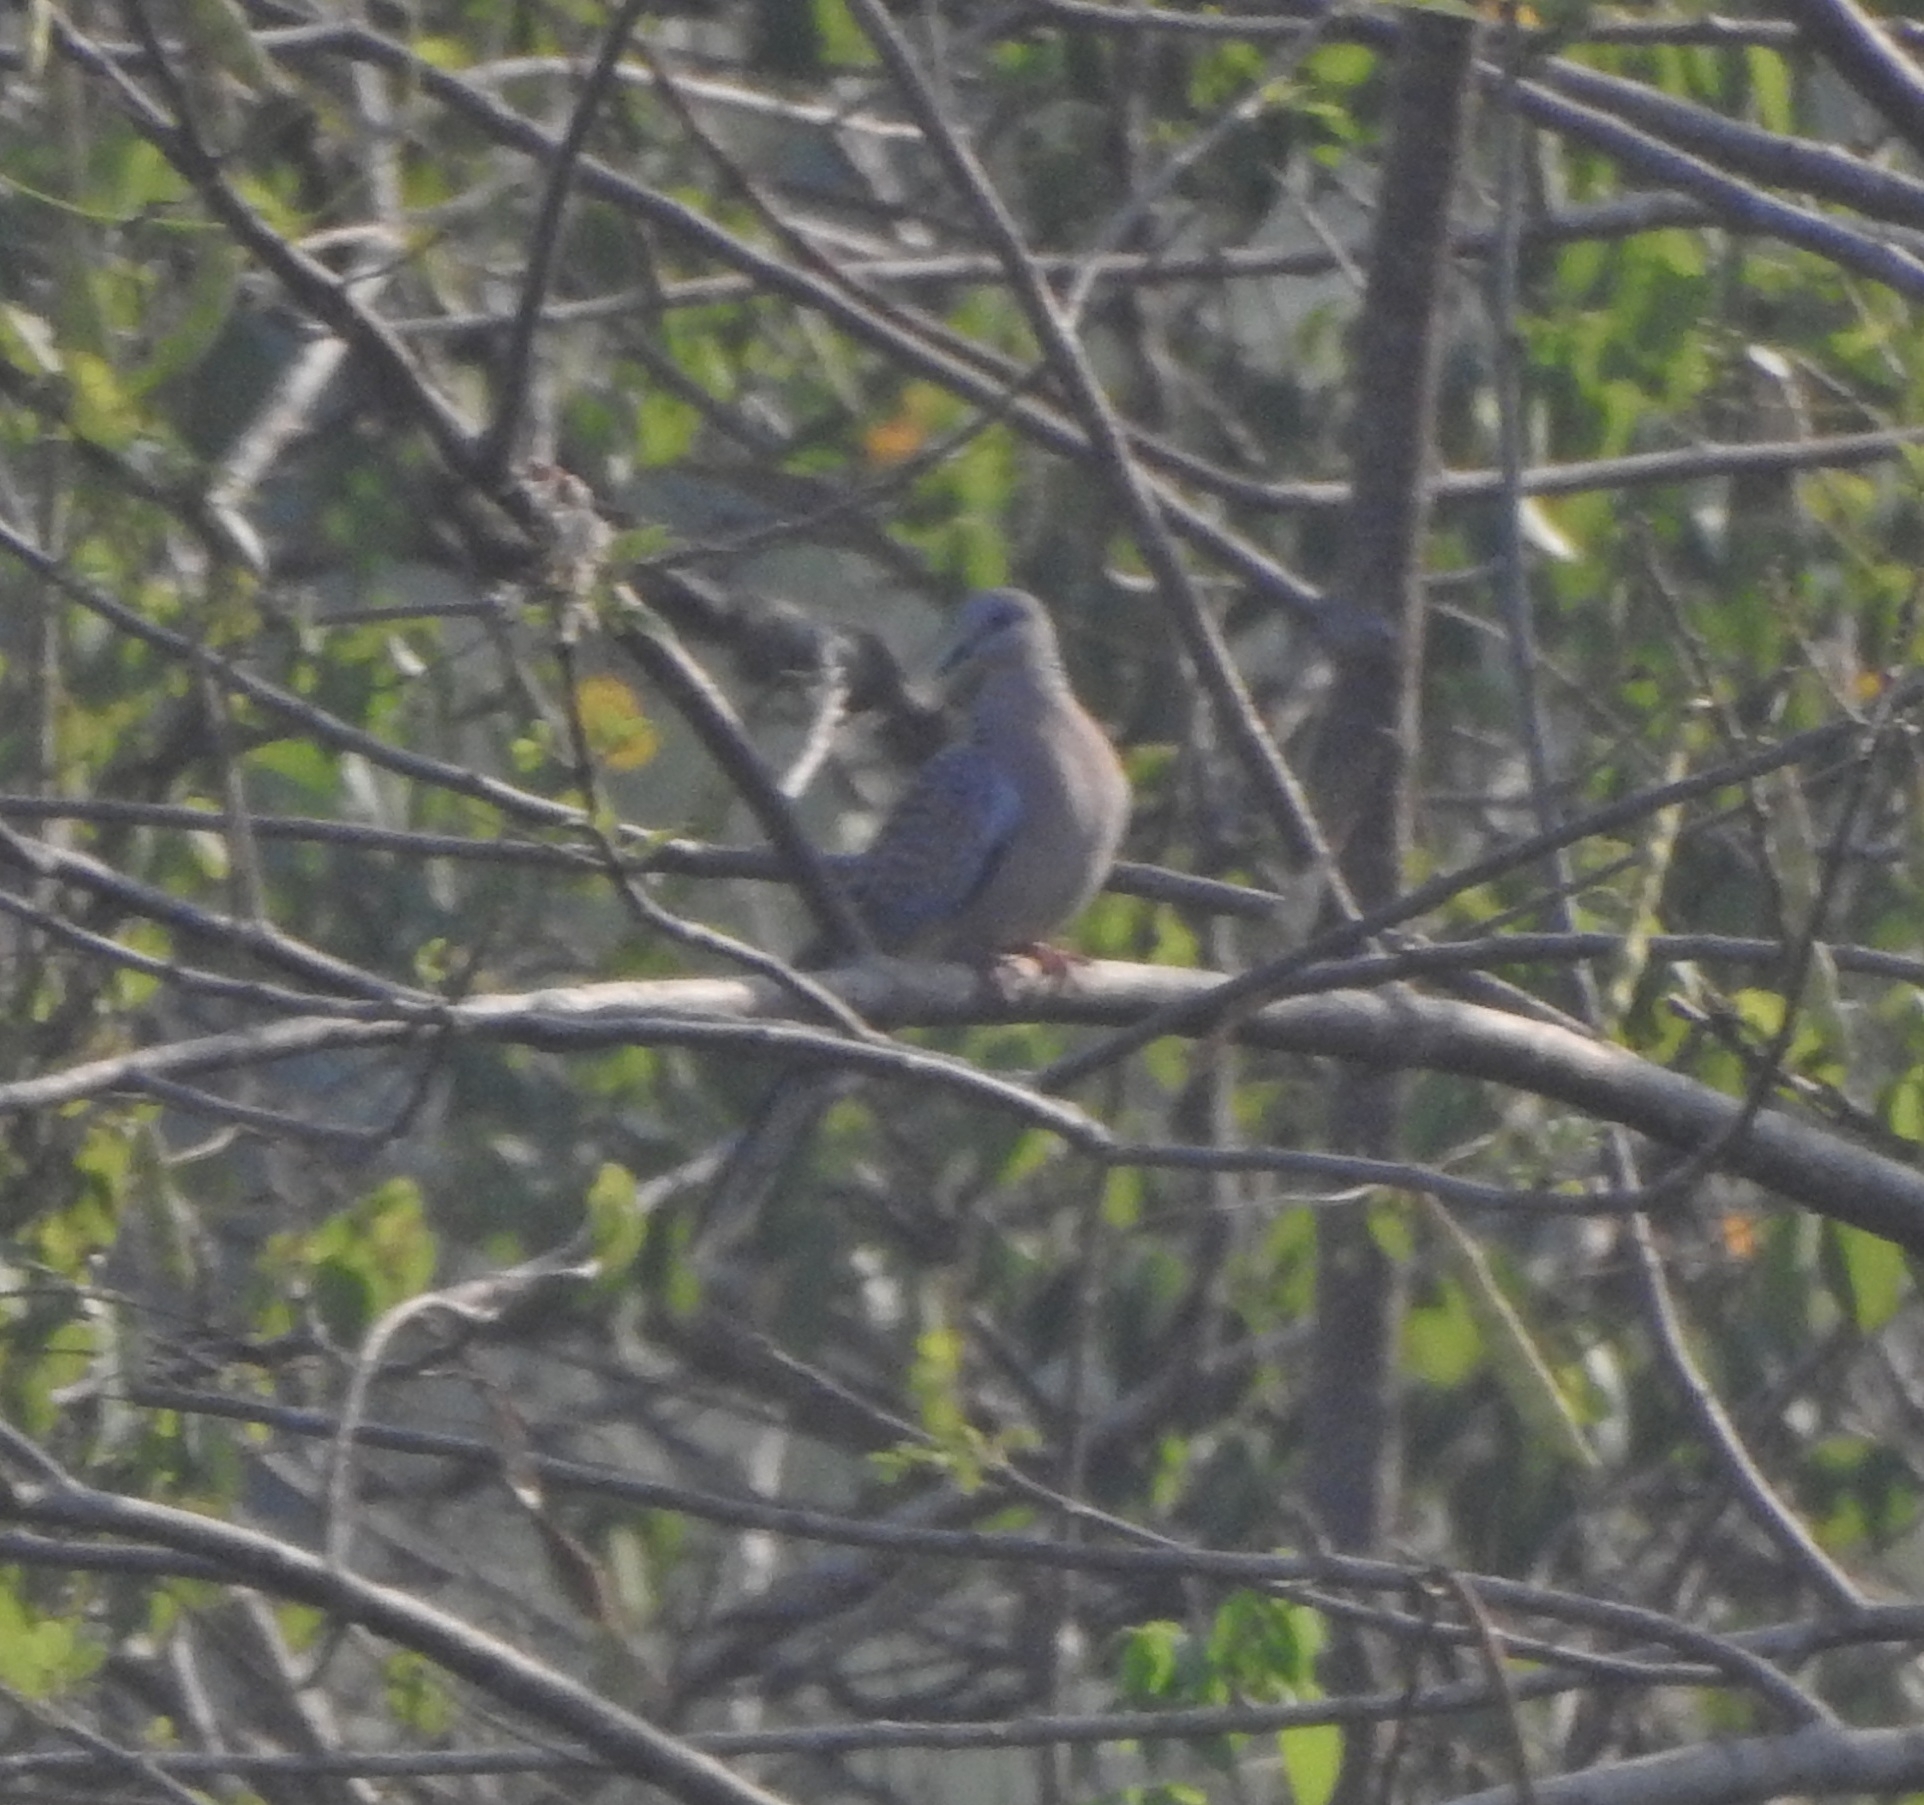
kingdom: Animalia
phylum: Chordata
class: Aves
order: Columbiformes
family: Columbidae
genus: Spilopelia
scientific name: Spilopelia chinensis
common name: Spotted dove
